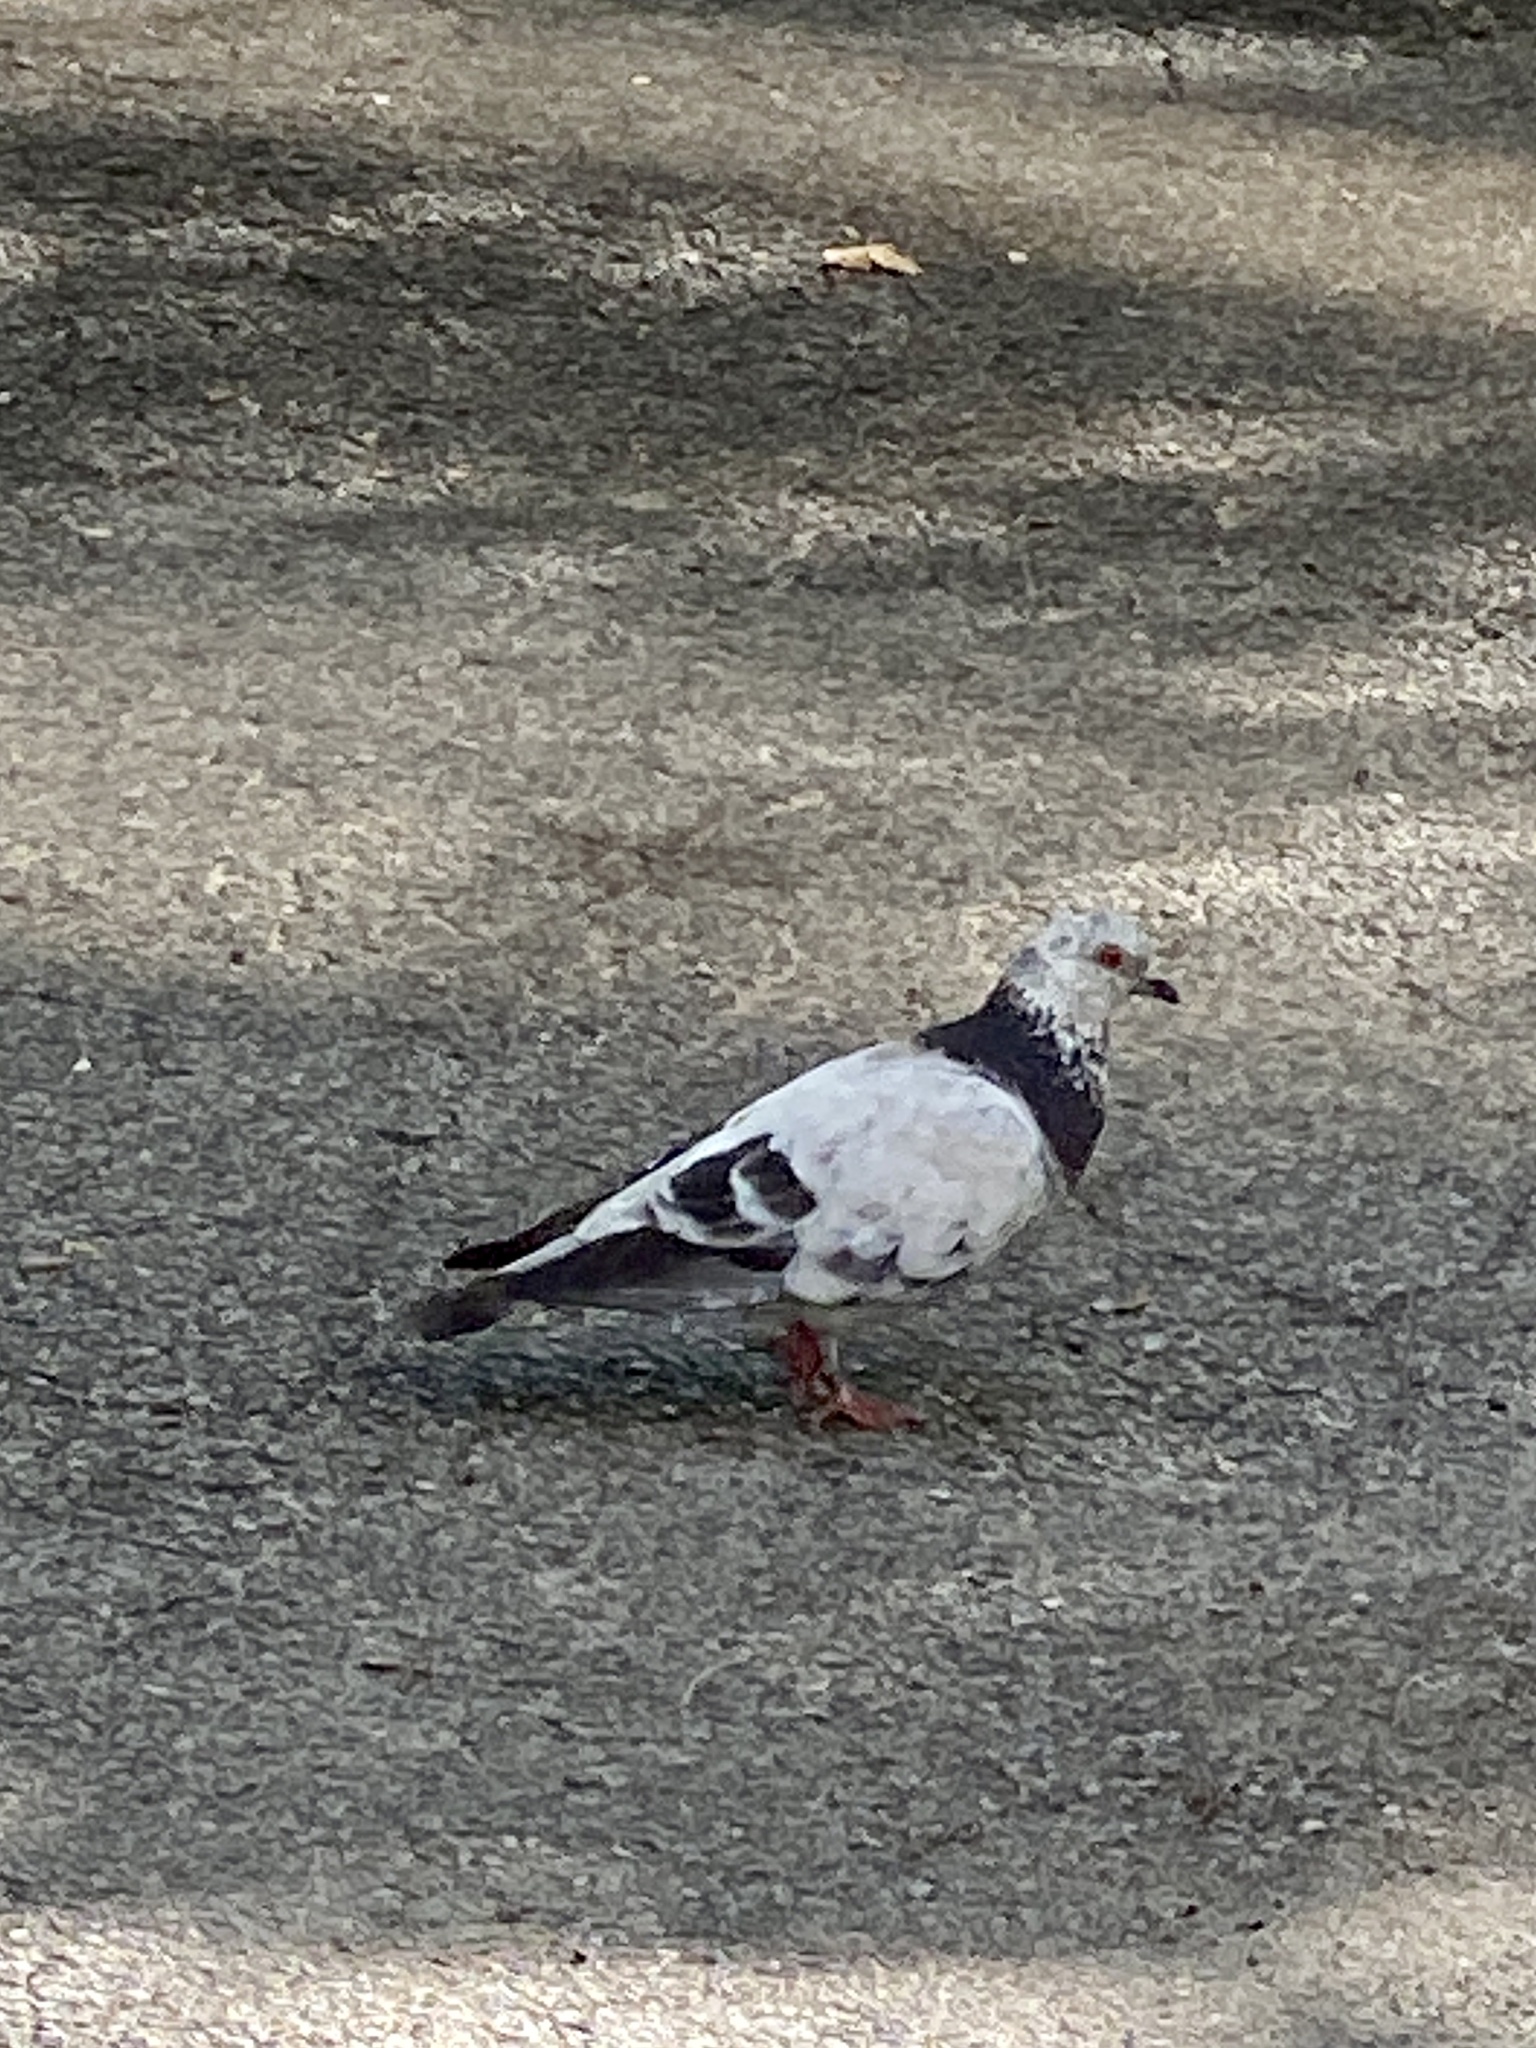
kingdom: Animalia
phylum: Chordata
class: Aves
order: Columbiformes
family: Columbidae
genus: Columba
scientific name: Columba livia
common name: Rock pigeon
